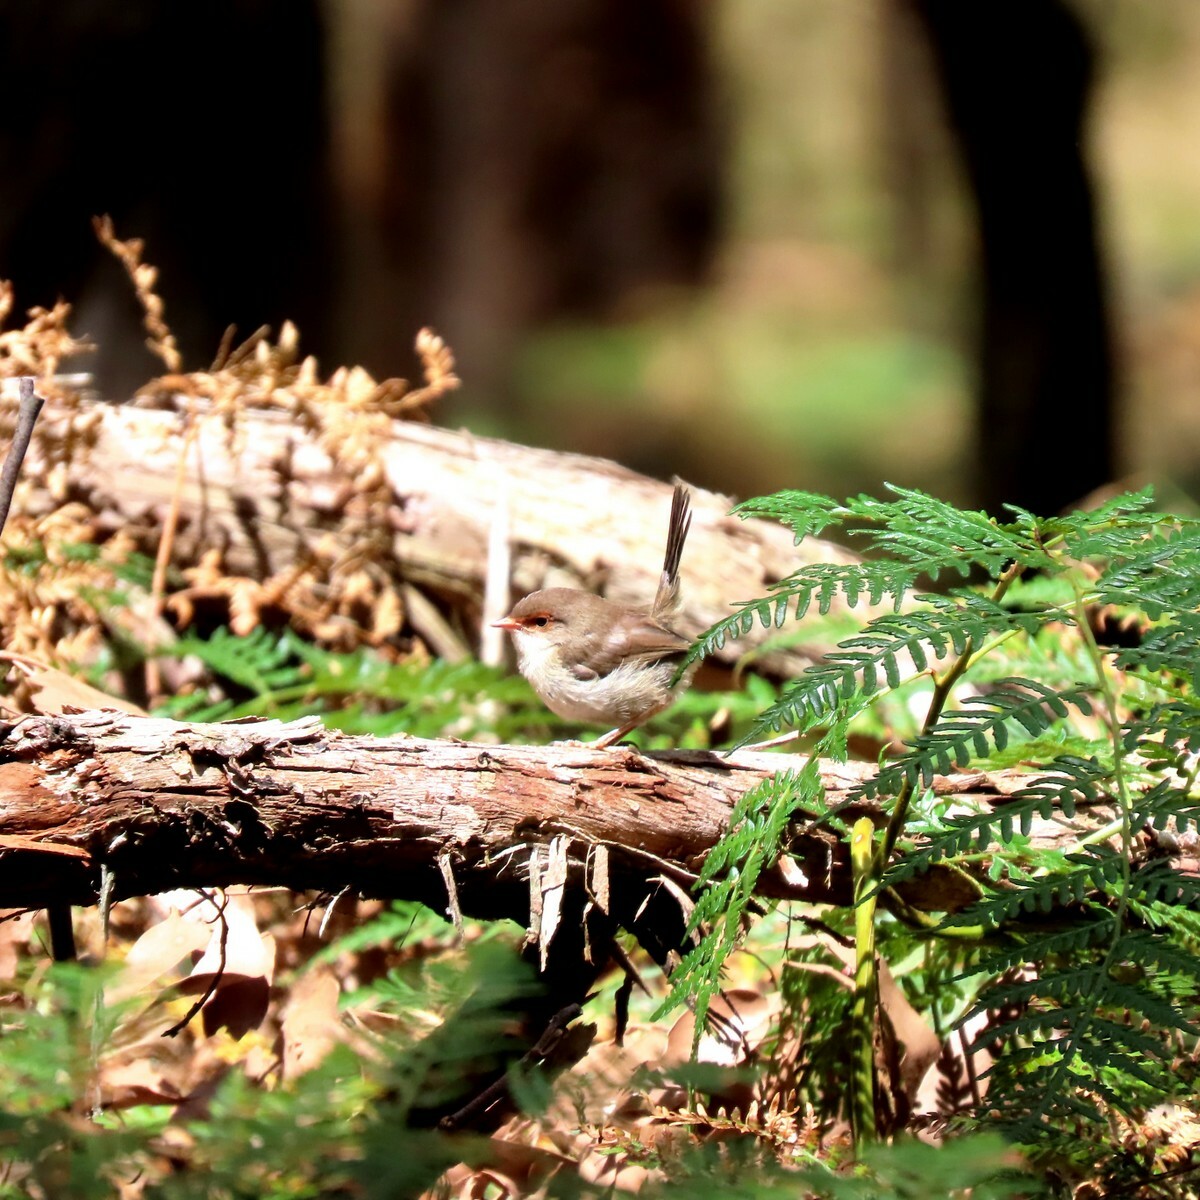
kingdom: Animalia
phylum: Chordata
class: Aves
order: Passeriformes
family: Maluridae
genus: Malurus
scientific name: Malurus cyaneus
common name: Superb fairywren
